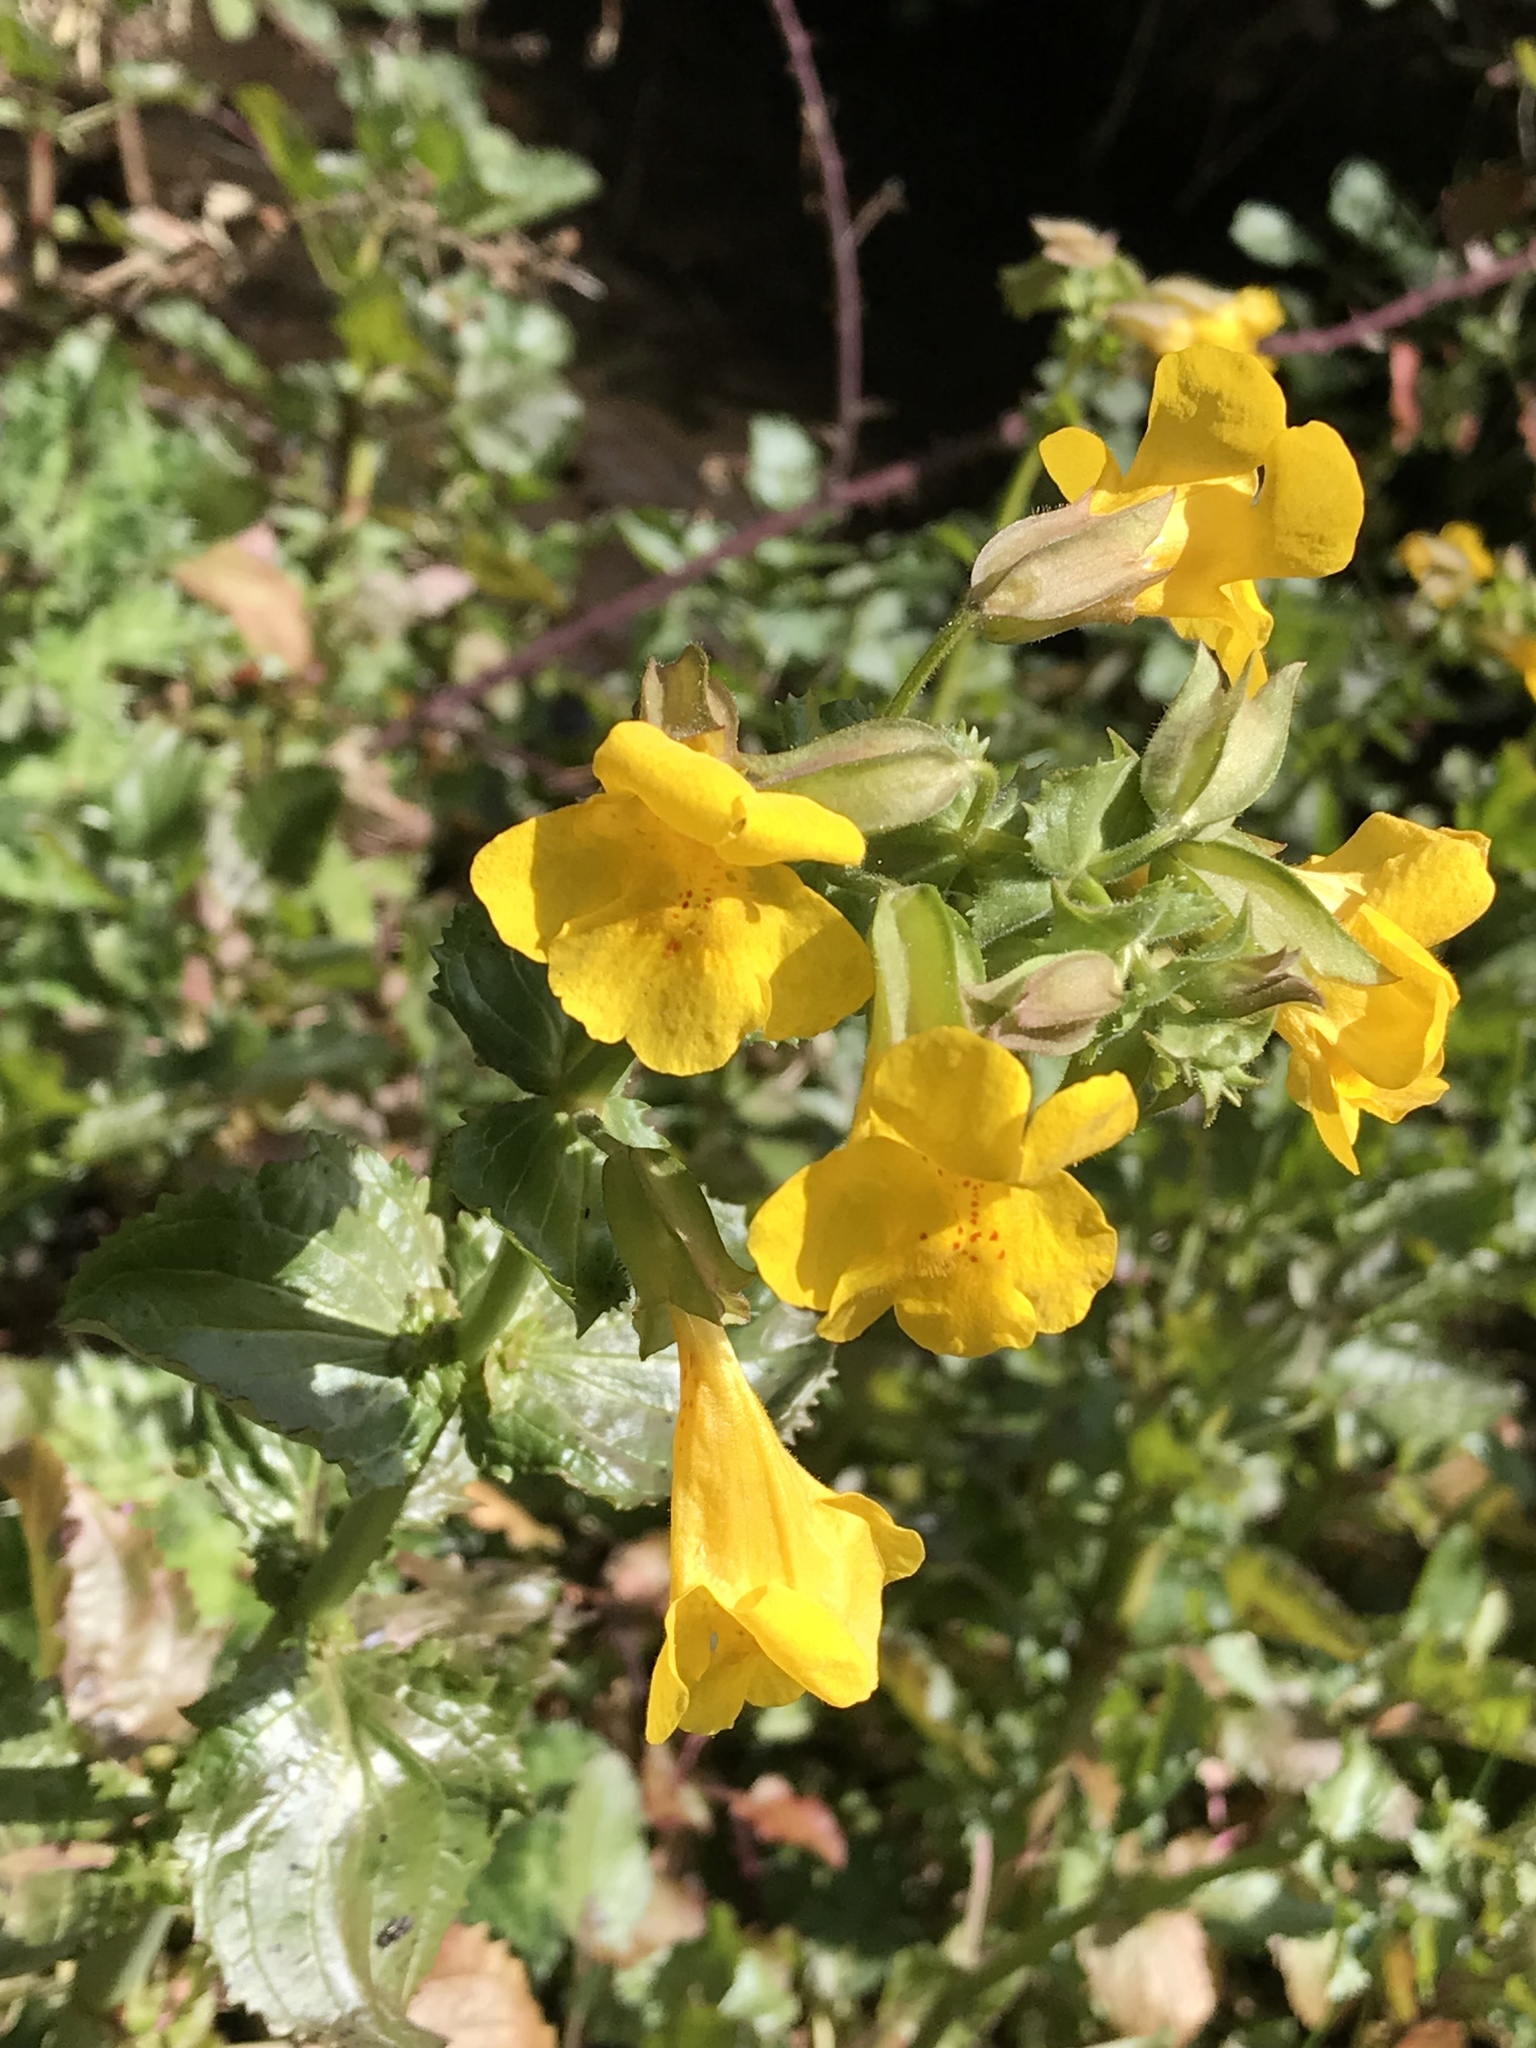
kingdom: Plantae
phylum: Tracheophyta
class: Magnoliopsida
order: Lamiales
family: Phrymaceae
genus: Erythranthe
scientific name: Erythranthe guttata
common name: Monkeyflower
